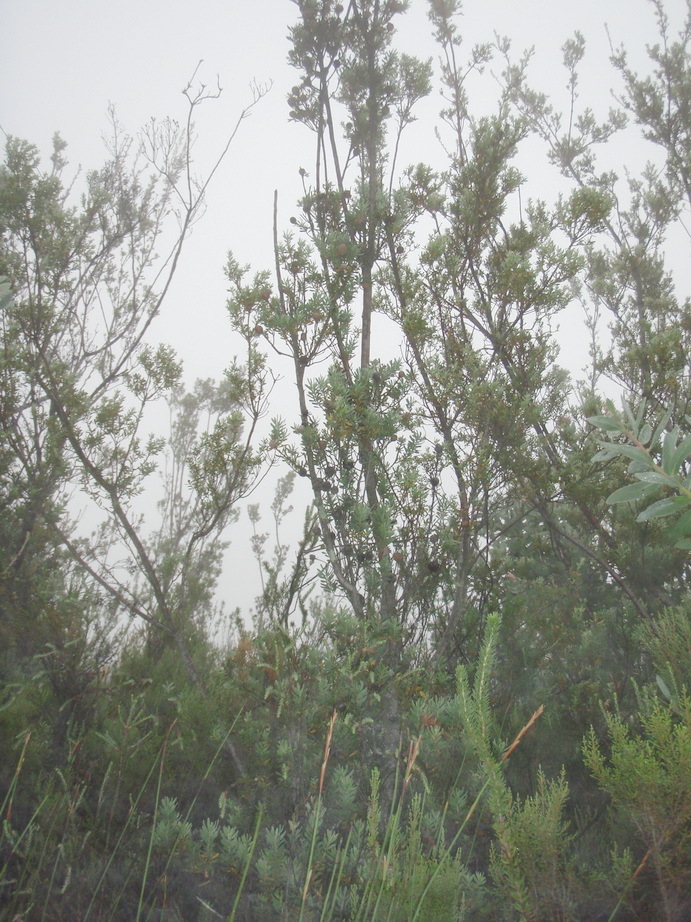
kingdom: Plantae
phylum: Tracheophyta
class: Magnoliopsida
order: Proteales
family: Proteaceae
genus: Leucadendron
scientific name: Leucadendron rourkei
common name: Uniondale conebush
